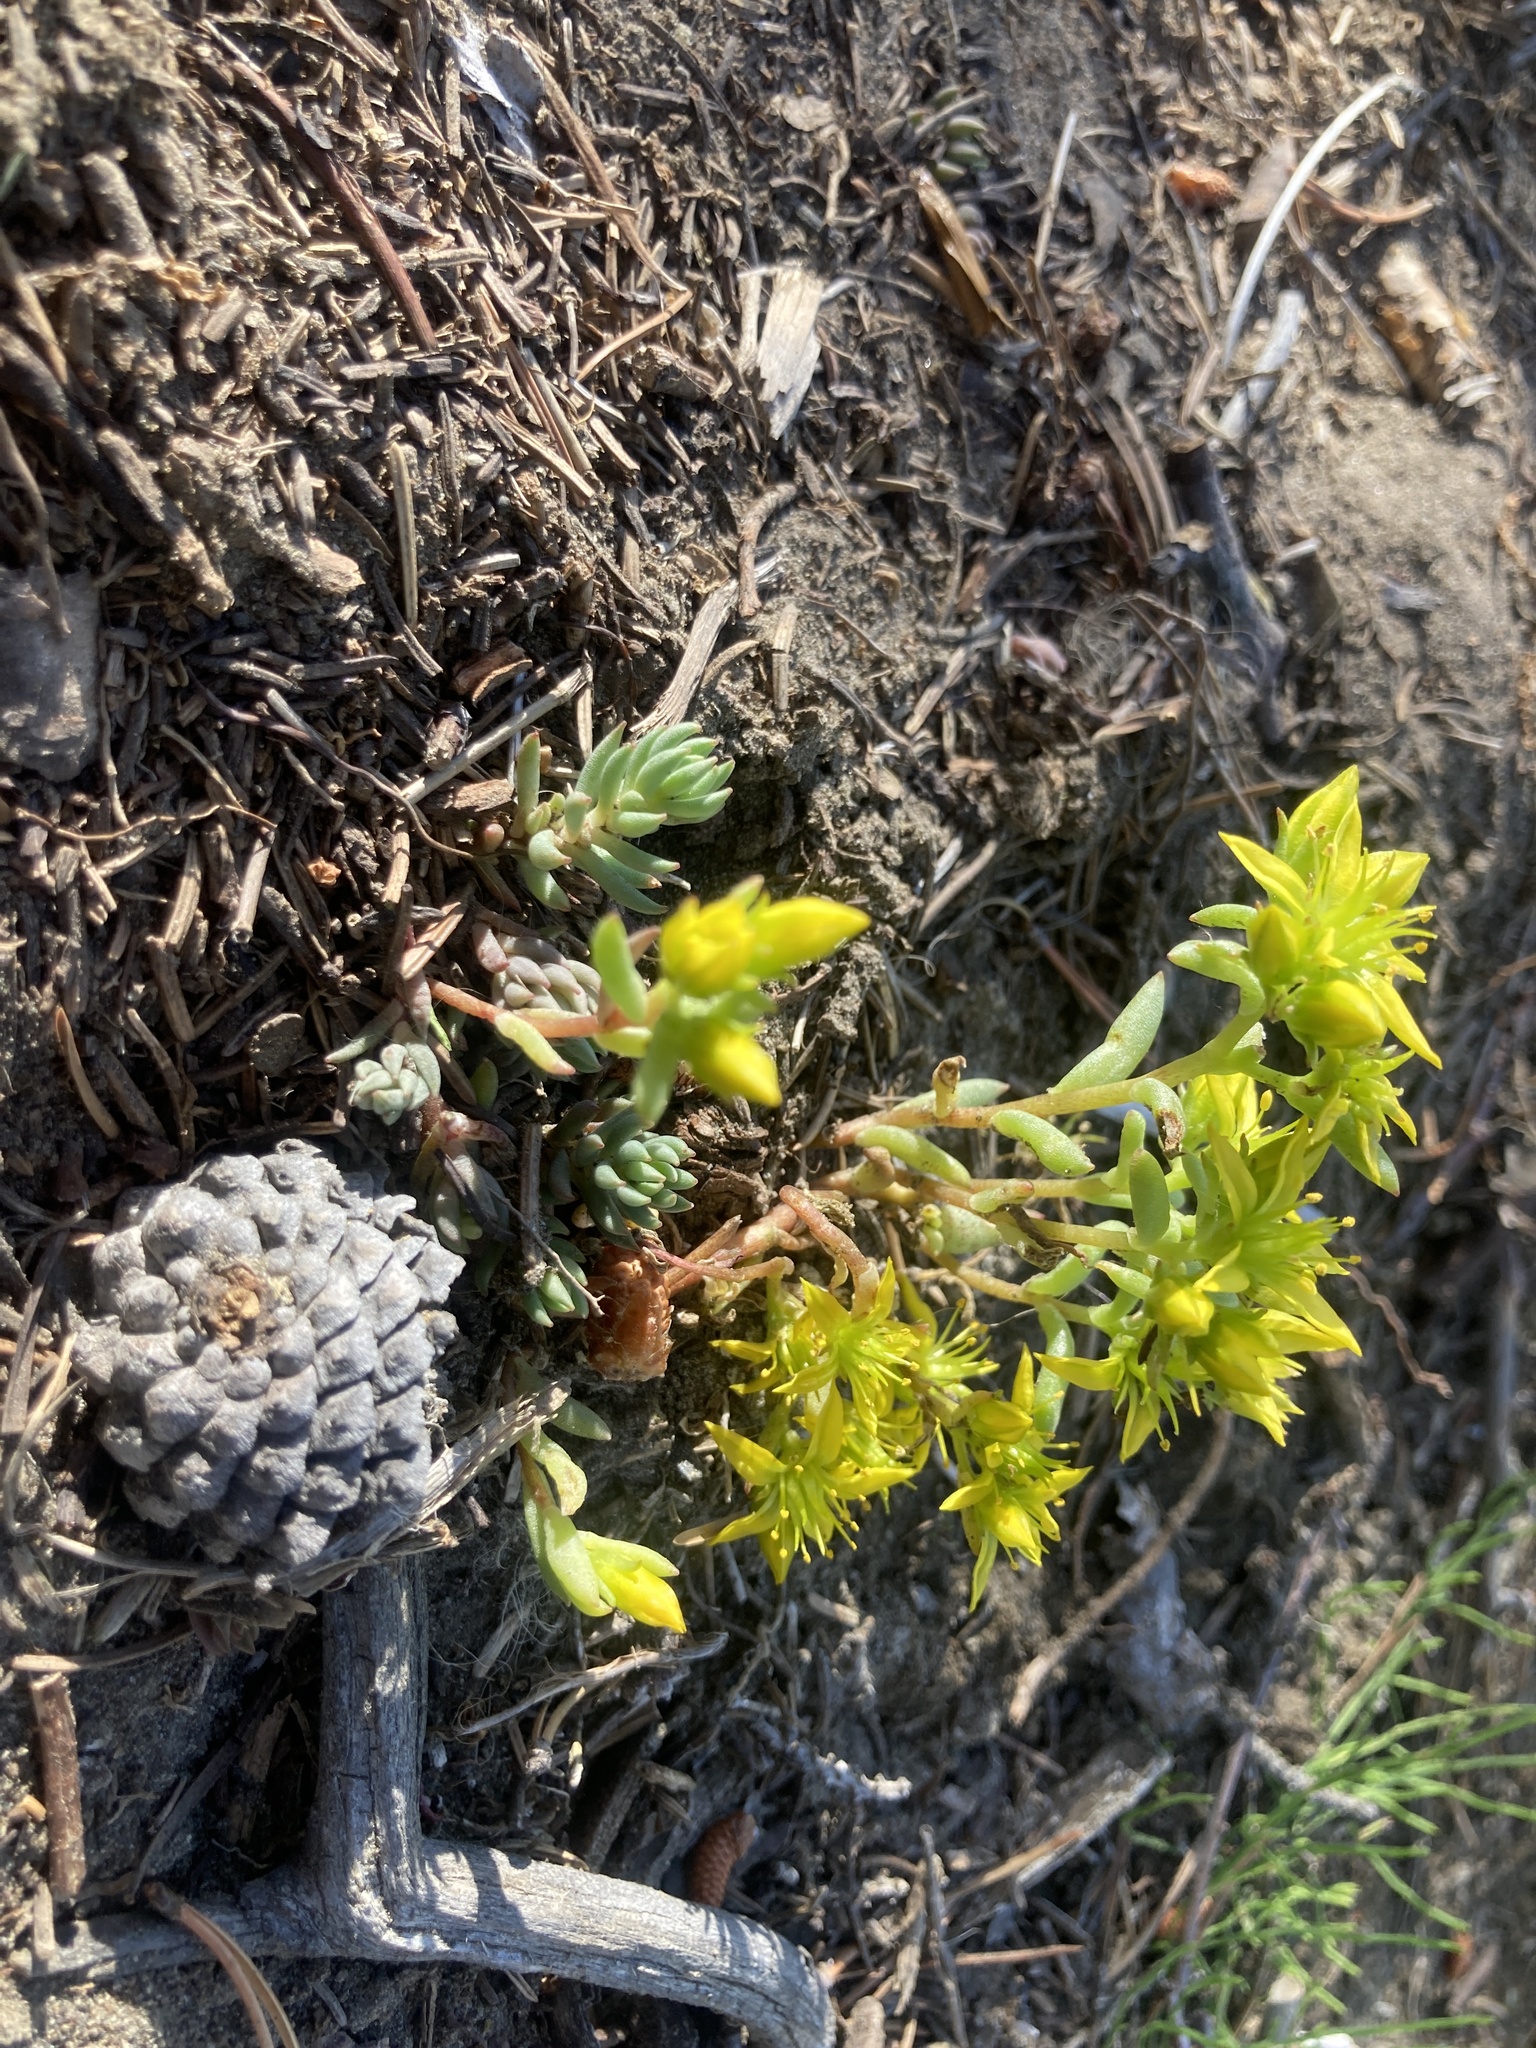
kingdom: Plantae
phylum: Tracheophyta
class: Magnoliopsida
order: Saxifragales
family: Crassulaceae
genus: Sedum
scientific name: Sedum lanceolatum
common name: Common stonecrop
